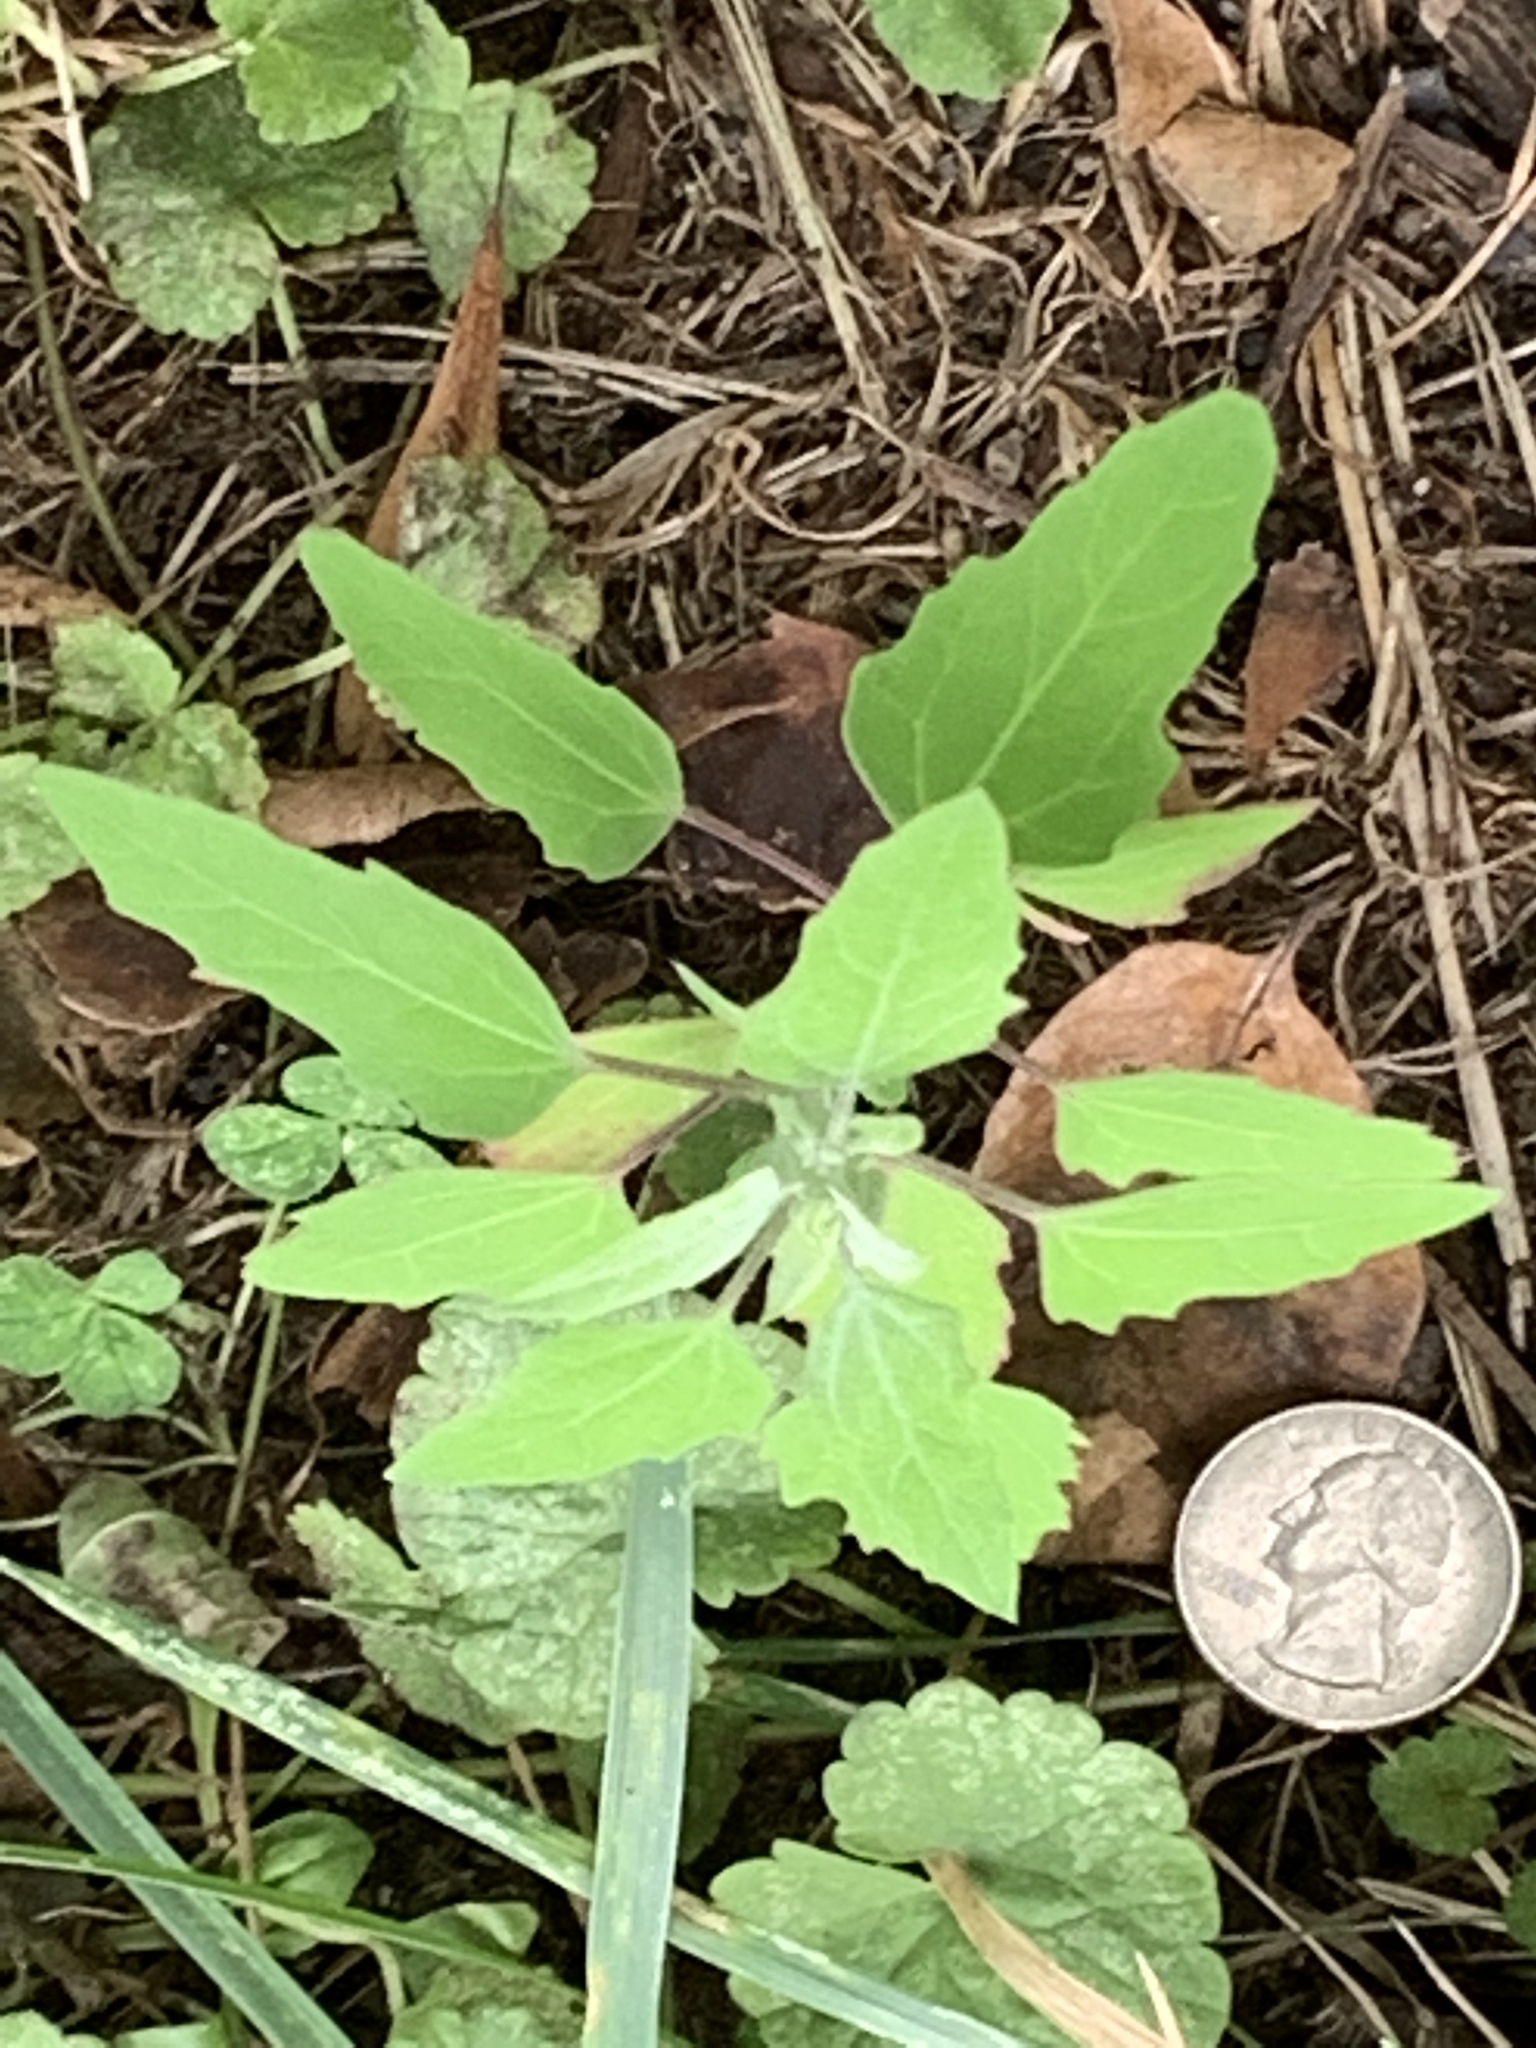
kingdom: Plantae
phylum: Tracheophyta
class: Magnoliopsida
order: Caryophyllales
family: Amaranthaceae
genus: Chenopodium
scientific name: Chenopodium album
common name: Fat-hen
